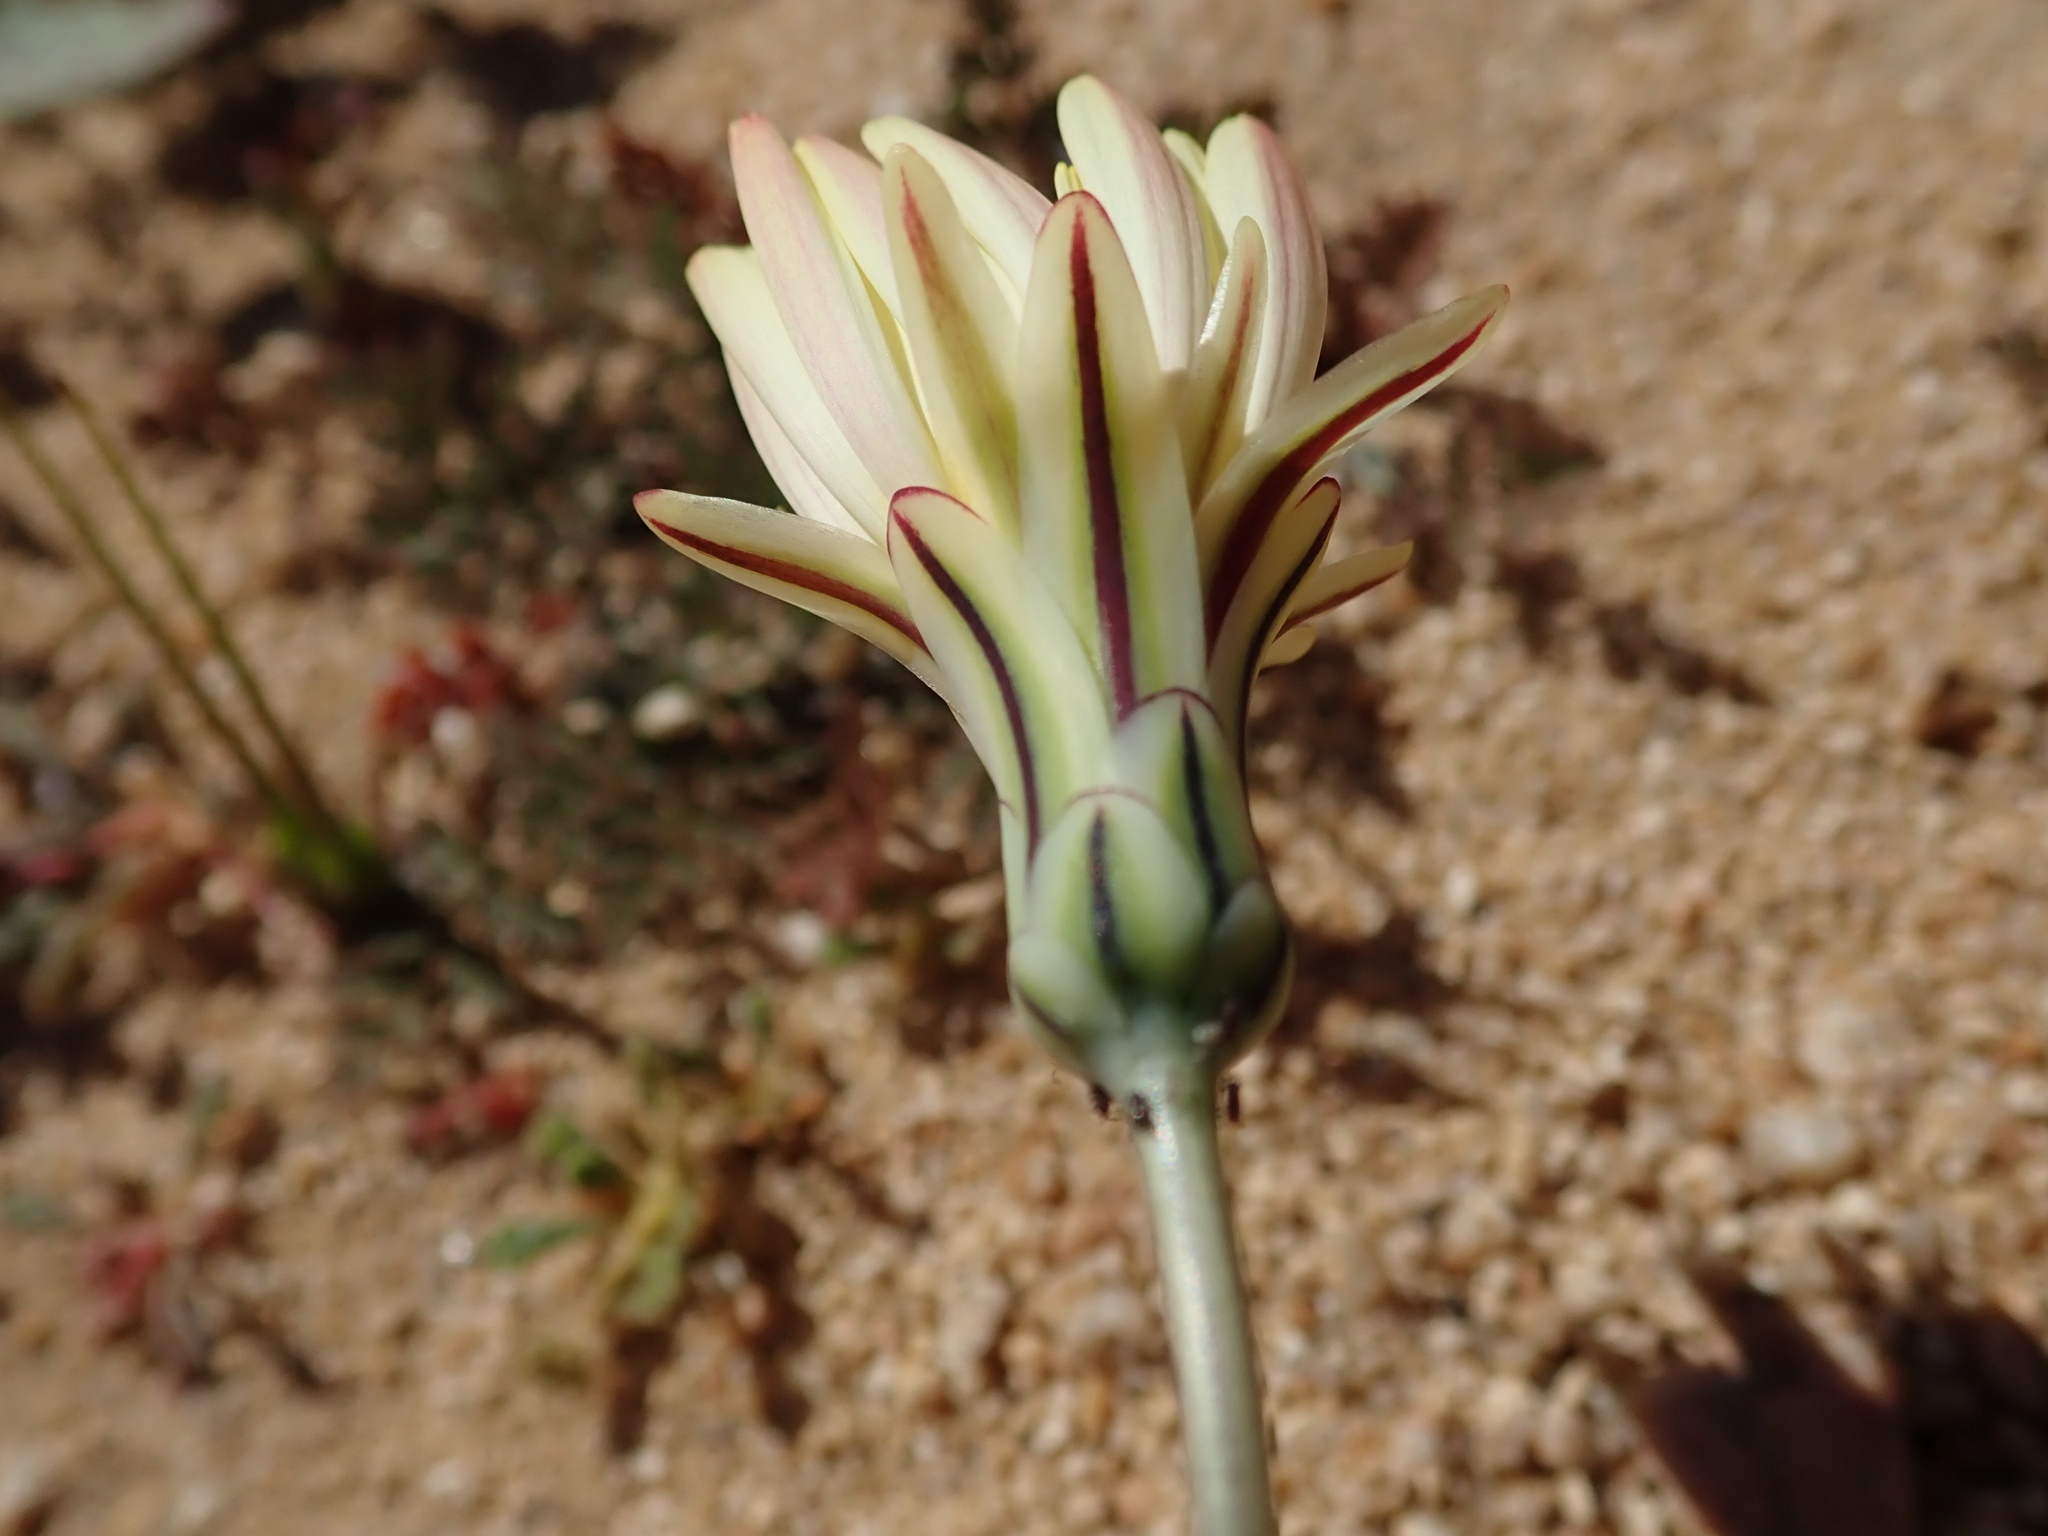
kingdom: Plantae
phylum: Tracheophyta
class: Magnoliopsida
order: Asterales
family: Asteraceae
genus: Anisocoma
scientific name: Anisocoma acaulis
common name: Scalebud
